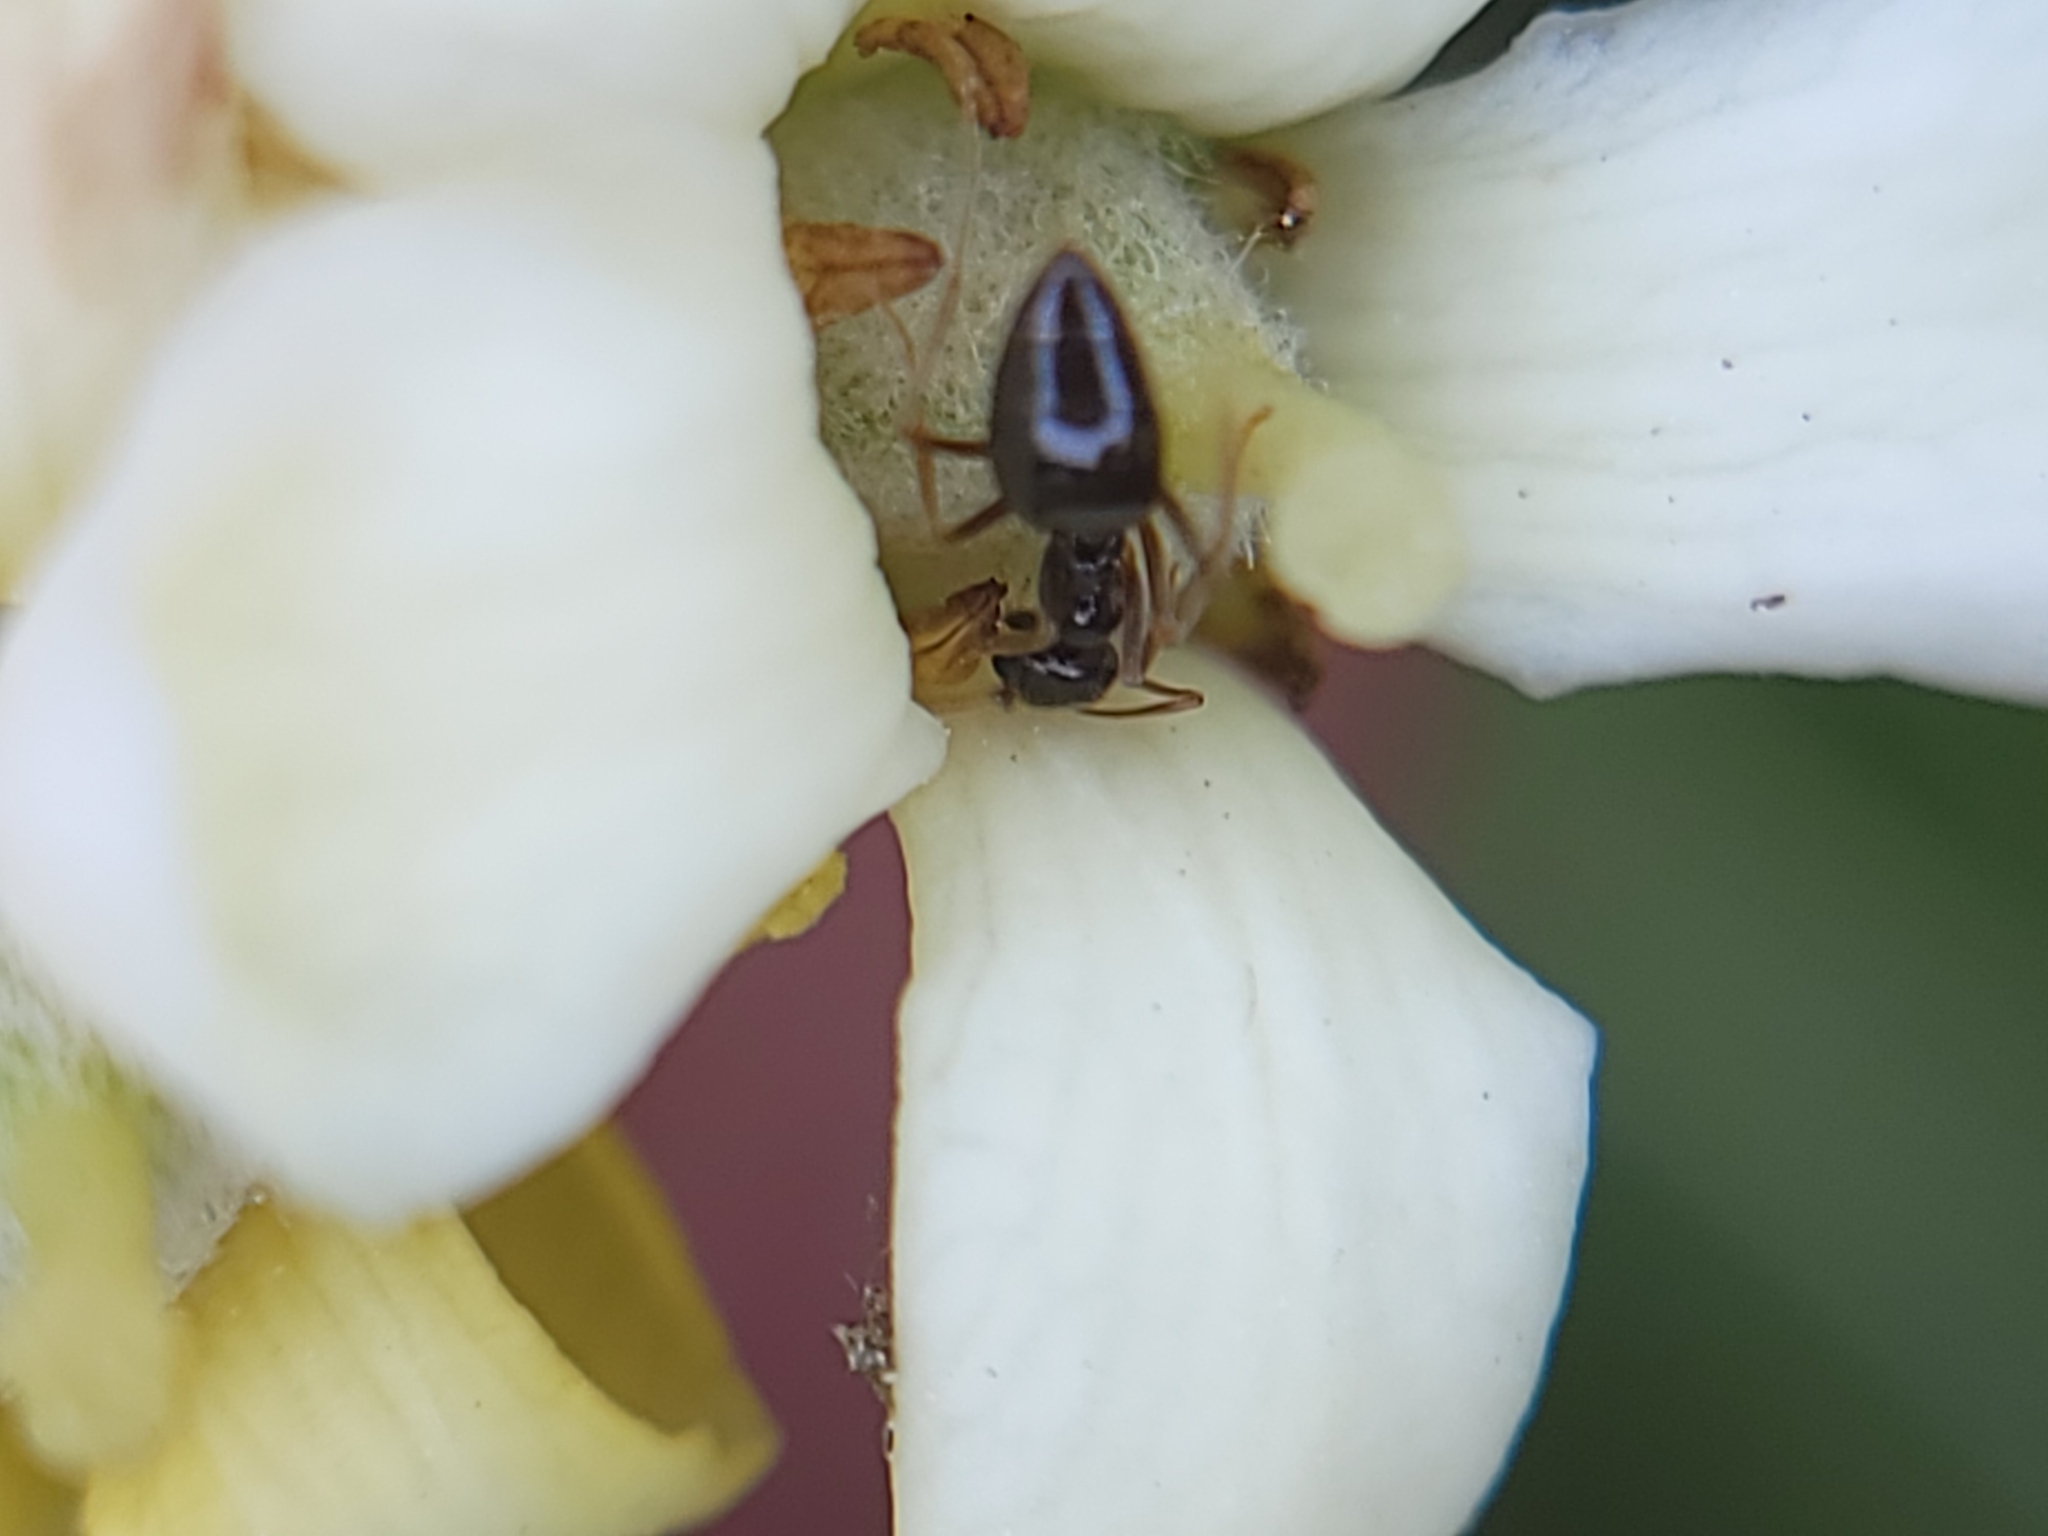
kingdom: Animalia
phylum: Arthropoda
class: Insecta
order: Hymenoptera
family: Formicidae
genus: Prenolepis
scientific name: Prenolepis imparis
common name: Small honey ant
